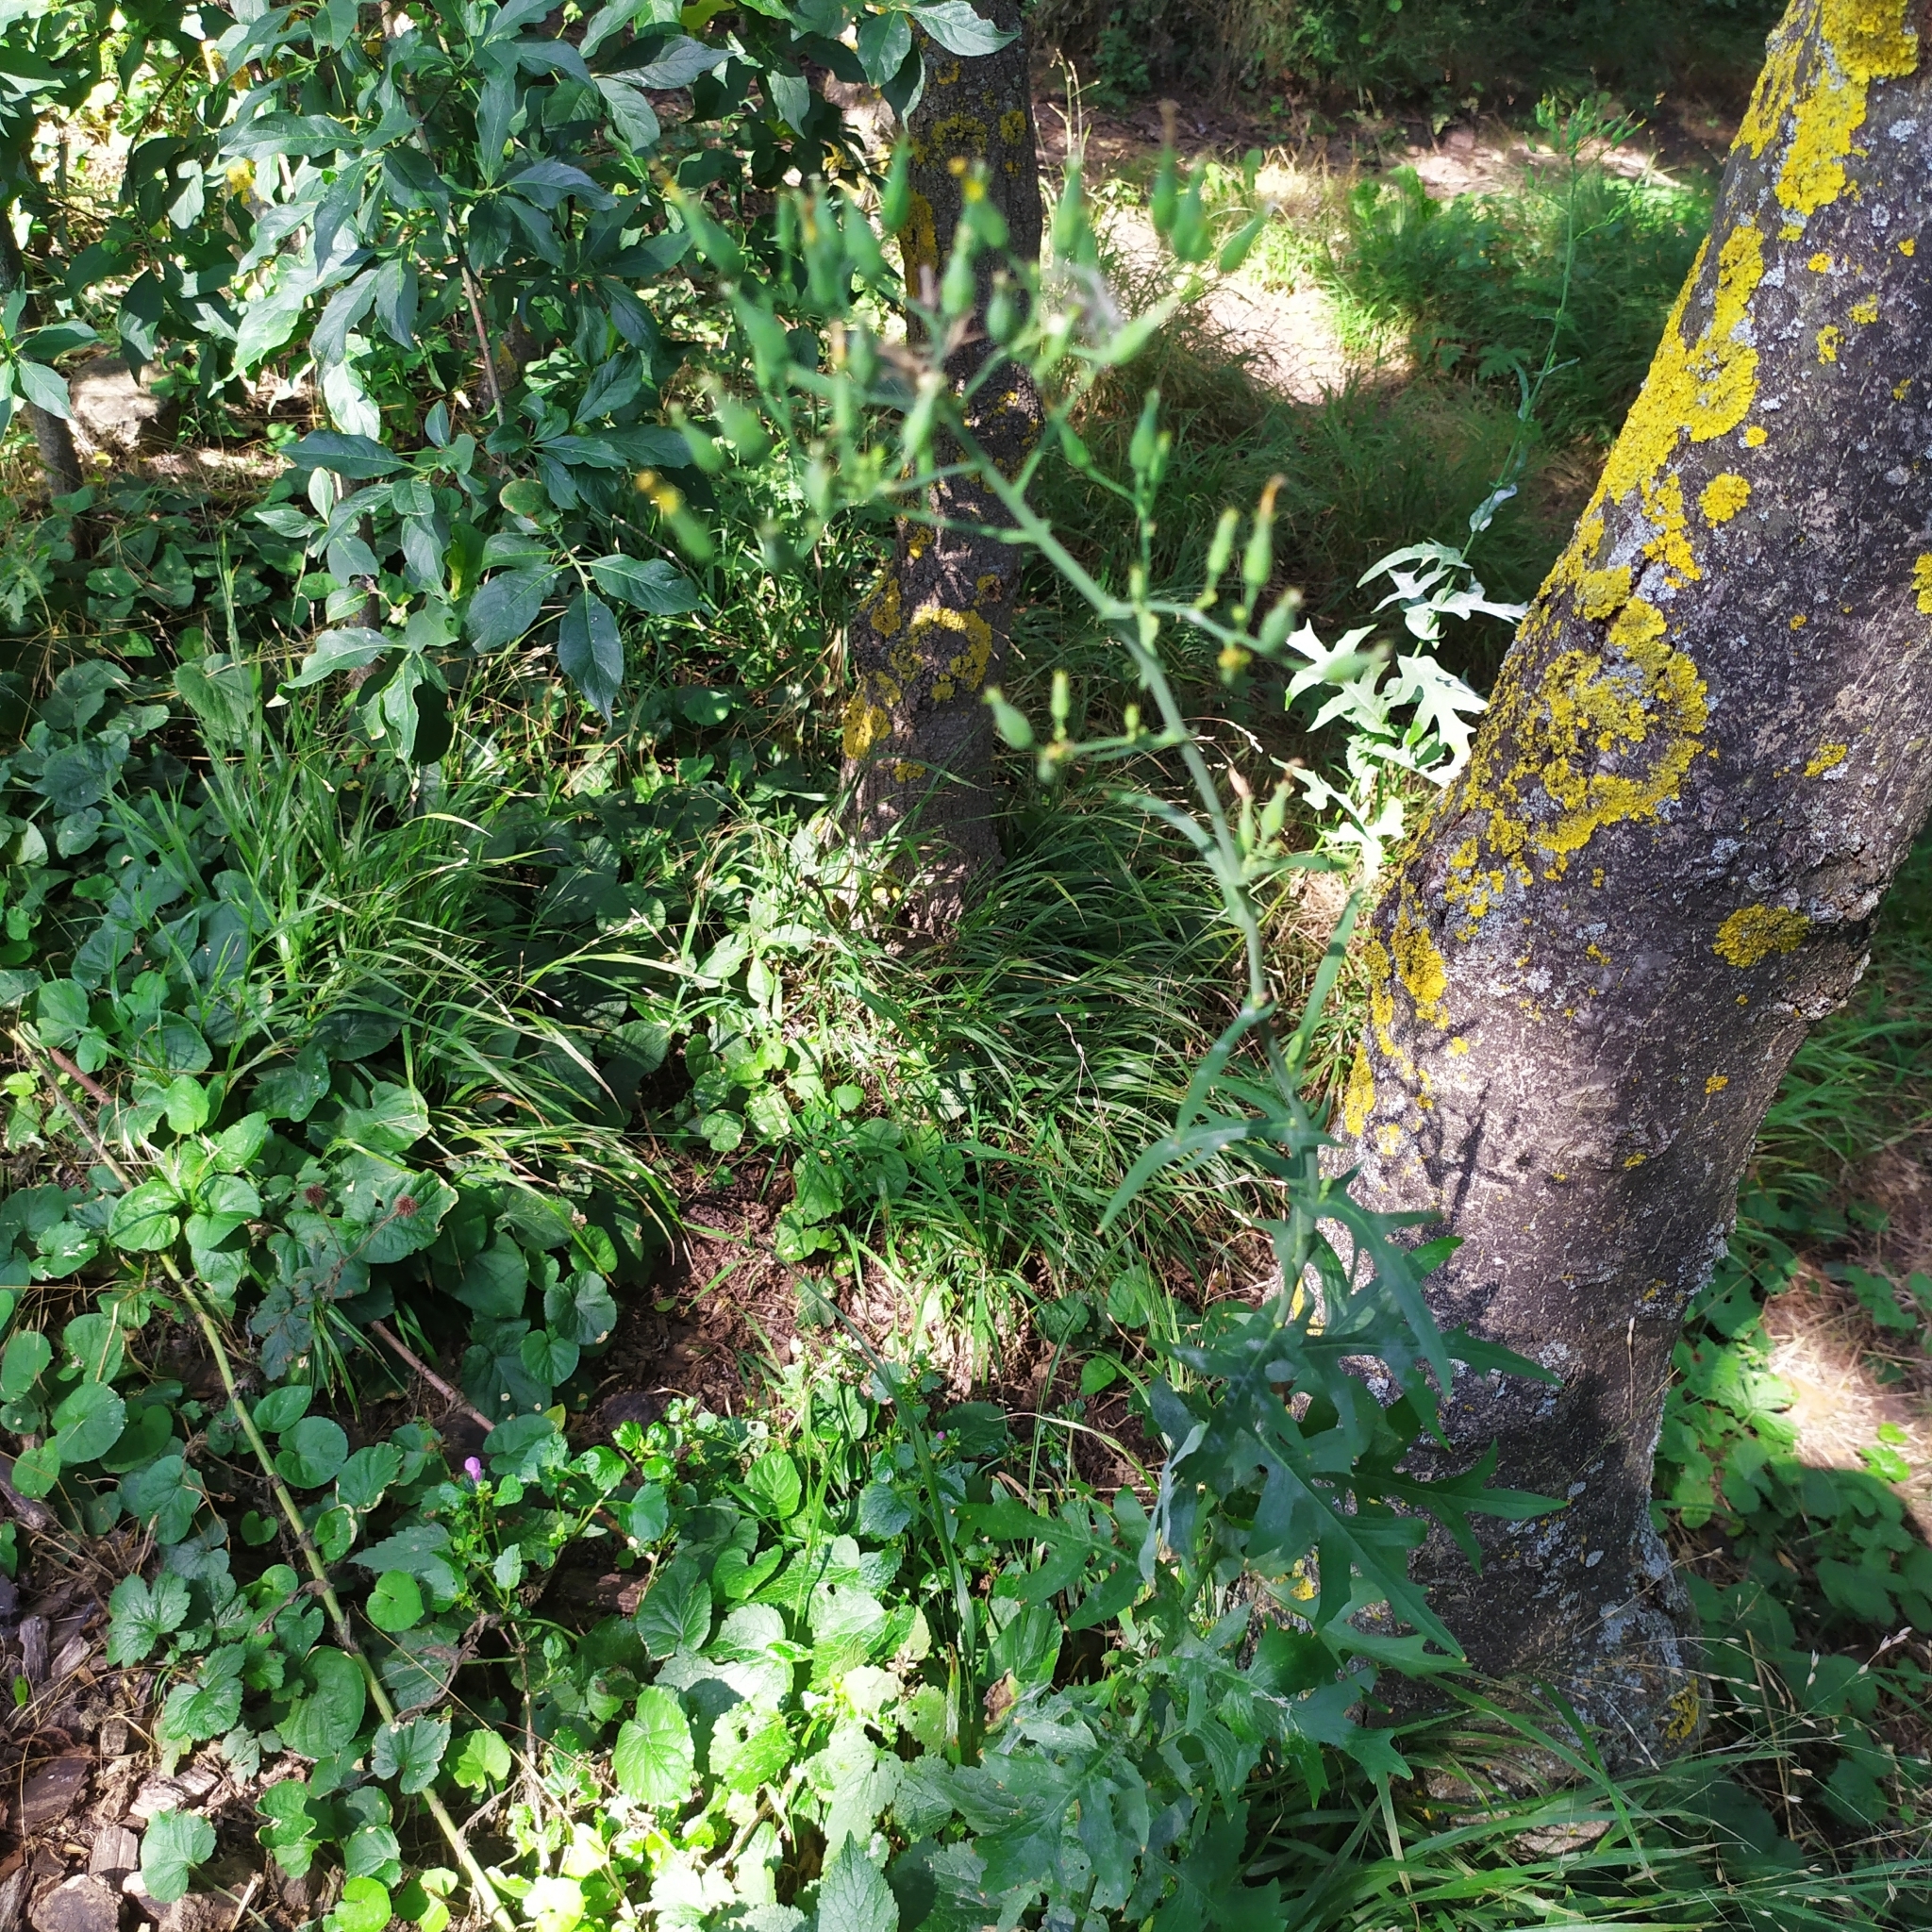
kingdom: Plantae
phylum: Tracheophyta
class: Magnoliopsida
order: Asterales
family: Asteraceae
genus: Lactuca
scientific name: Lactuca quercina
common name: Wild lettuce
